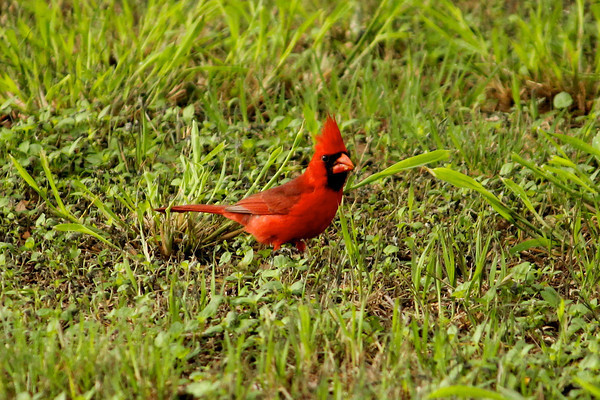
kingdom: Animalia
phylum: Chordata
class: Aves
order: Passeriformes
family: Cardinalidae
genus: Cardinalis
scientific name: Cardinalis cardinalis
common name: Northern cardinal
